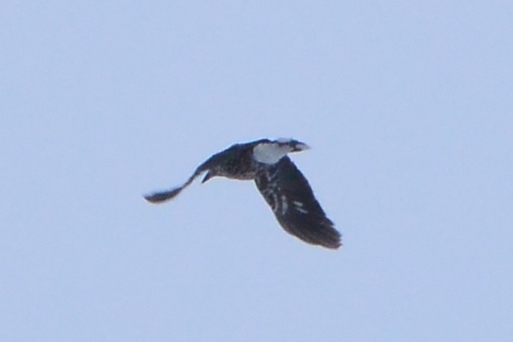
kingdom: Animalia
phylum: Chordata
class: Aves
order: Passeriformes
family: Corvidae
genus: Nucifraga
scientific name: Nucifraga caryocatactes
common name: Spotted nutcracker
